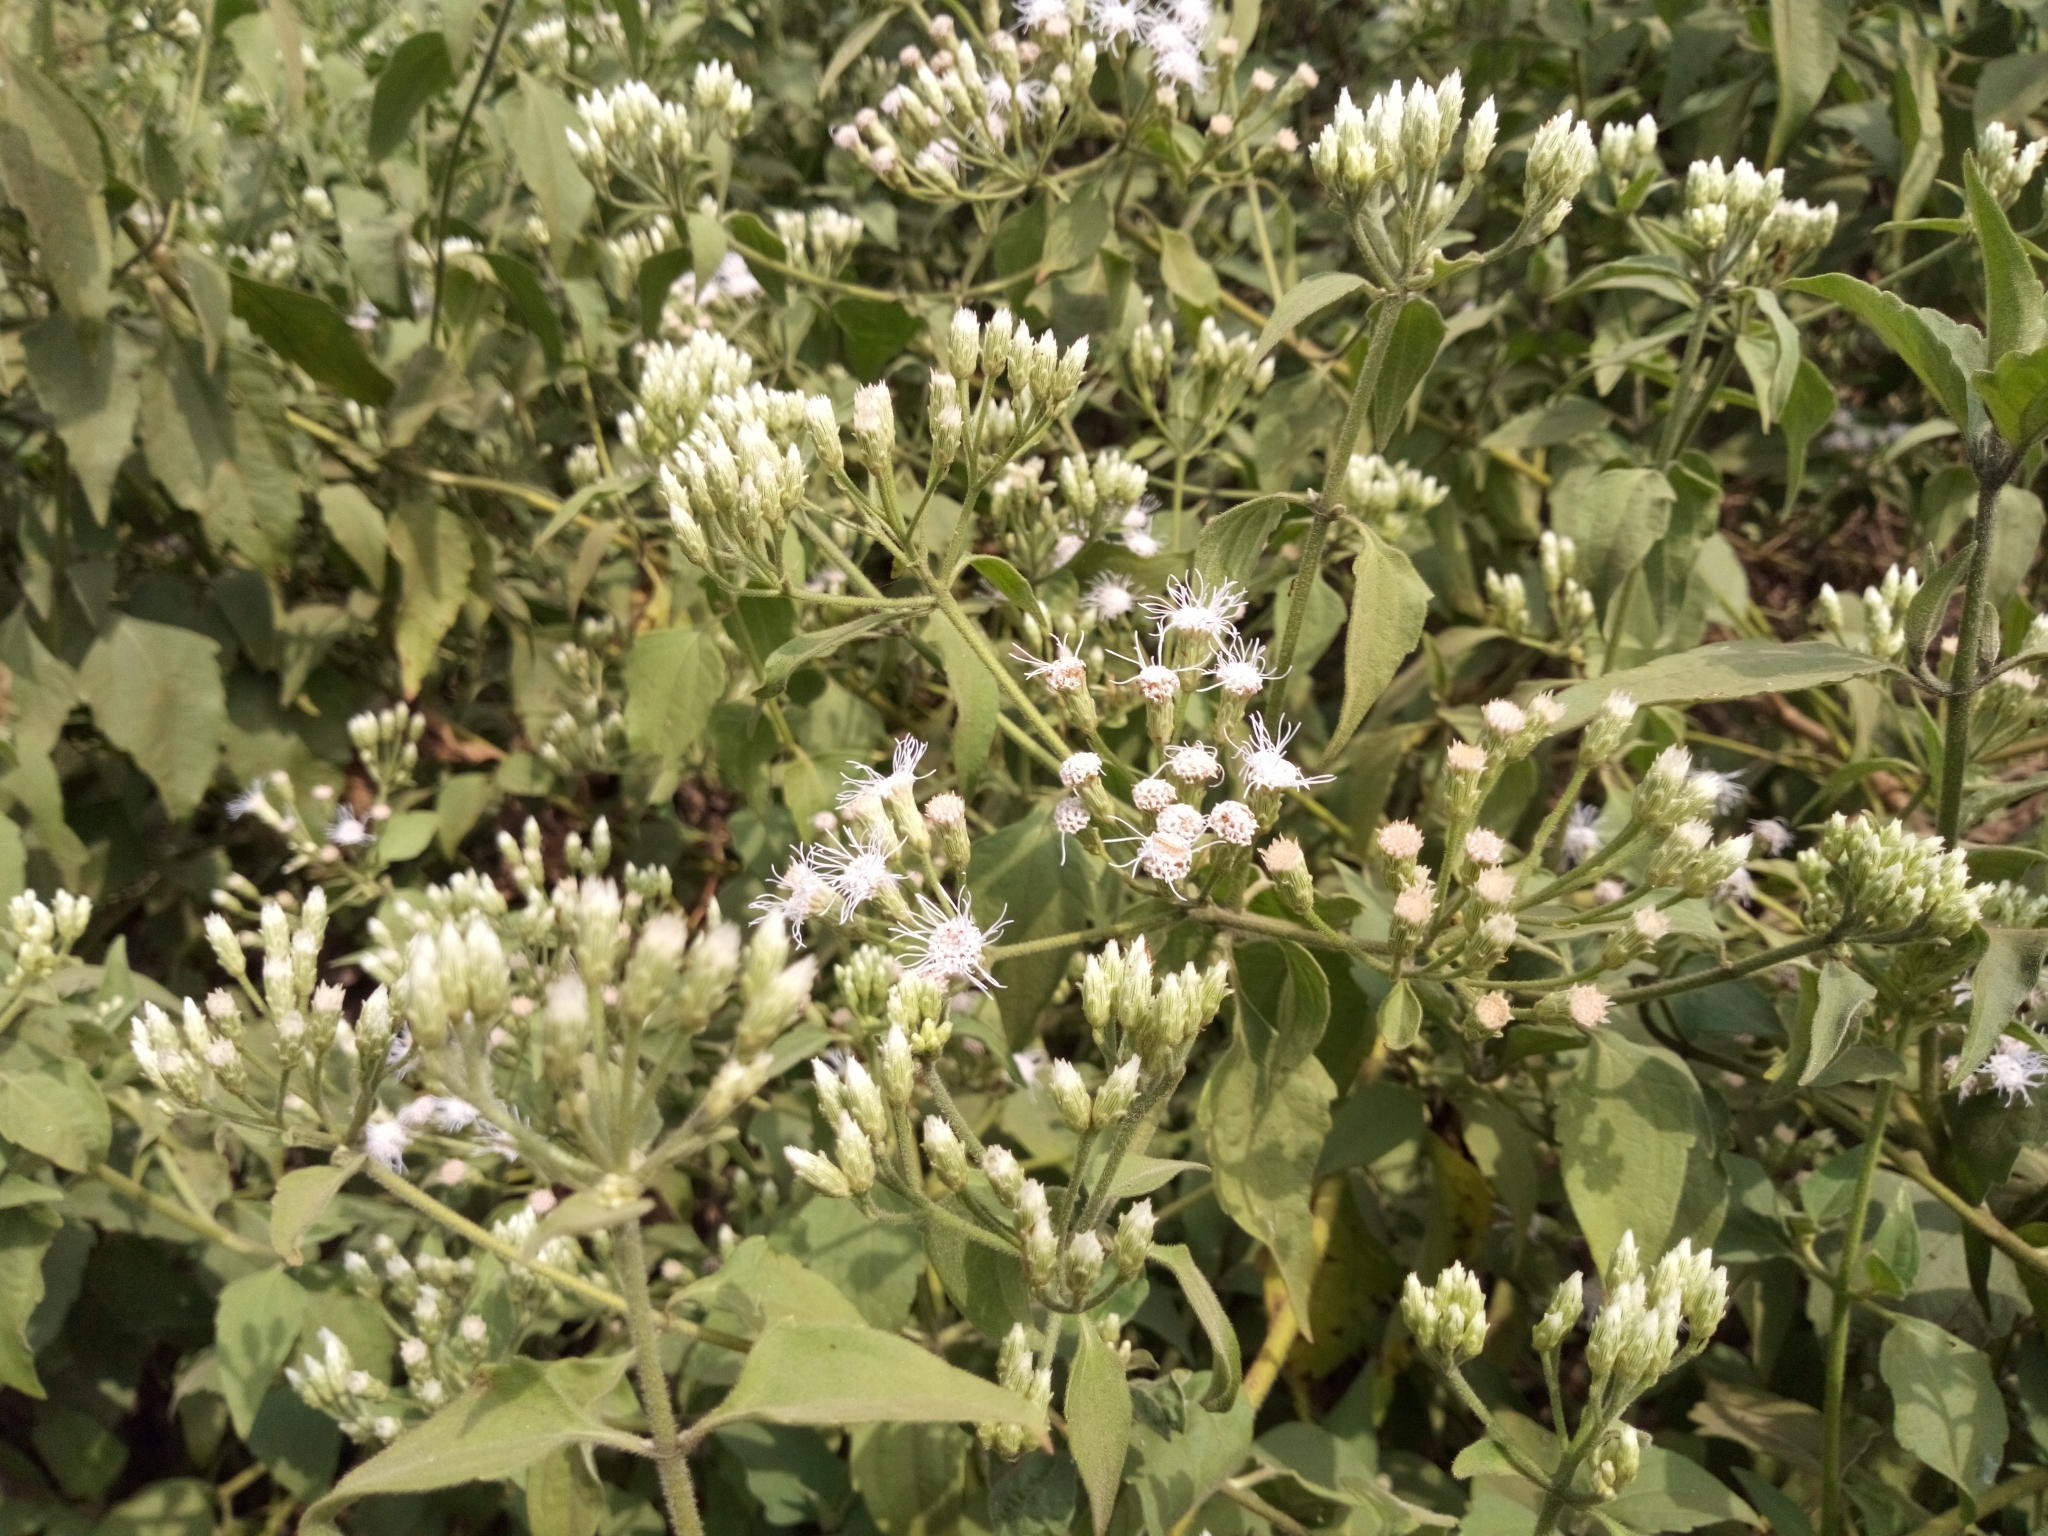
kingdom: Plantae
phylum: Tracheophyta
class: Magnoliopsida
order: Asterales
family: Asteraceae
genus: Chromolaena
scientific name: Chromolaena odorata
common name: Siamweed
